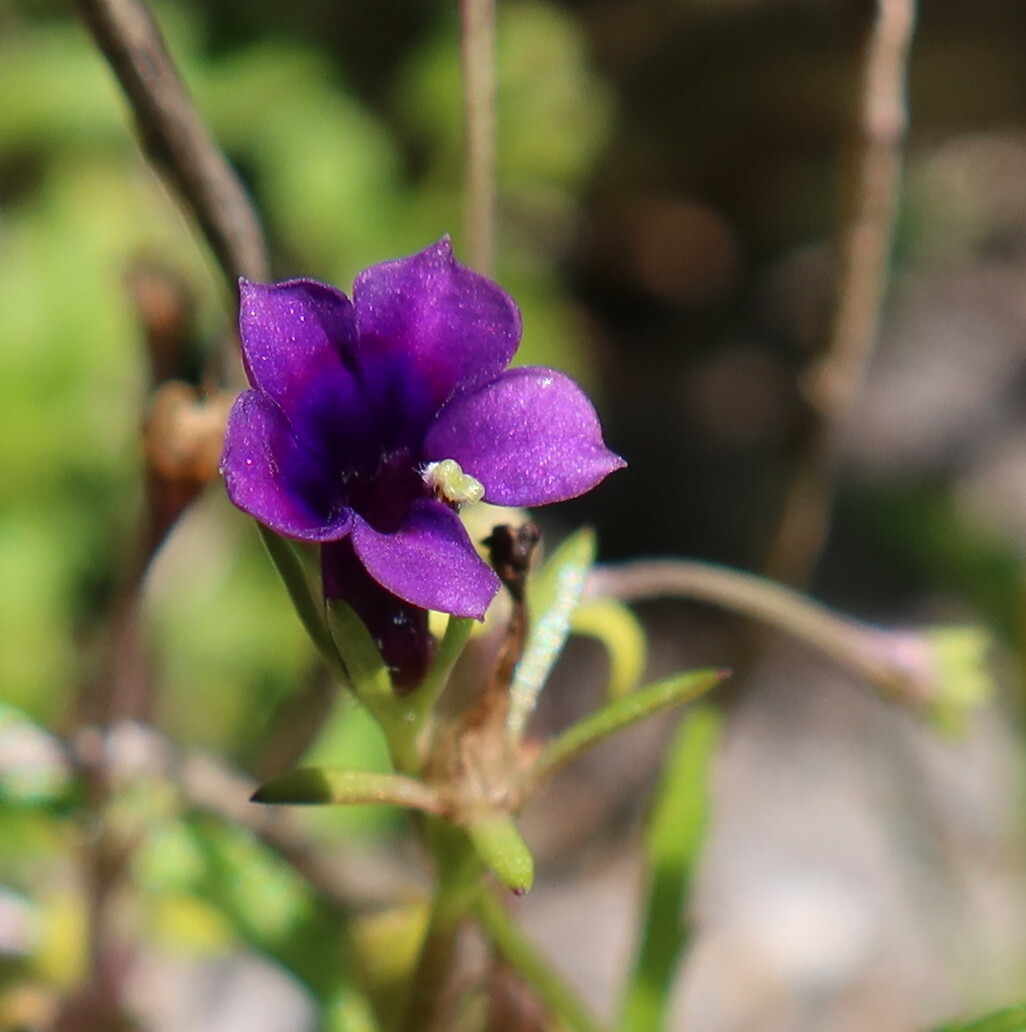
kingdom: Plantae
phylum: Tracheophyta
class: Magnoliopsida
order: Asterales
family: Campanulaceae
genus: Monopsis
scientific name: Monopsis debilis
